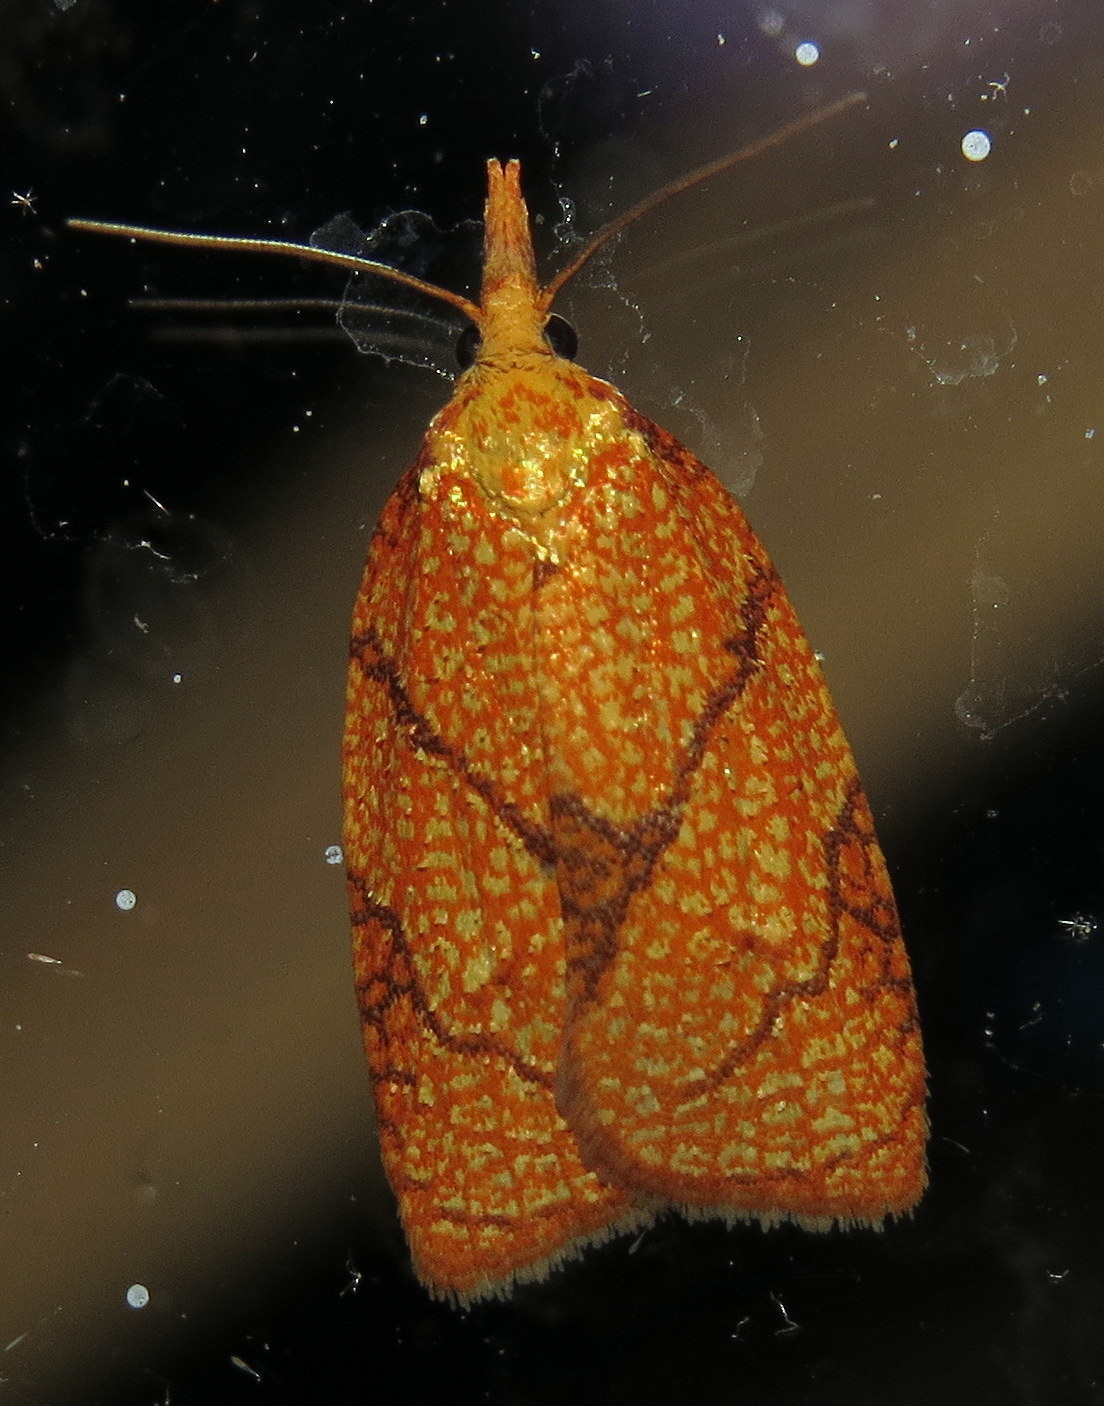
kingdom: Animalia
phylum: Arthropoda
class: Insecta
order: Lepidoptera
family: Tortricidae
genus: Cenopis
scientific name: Cenopis reticulatana
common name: Reticulated fruitworm moth
